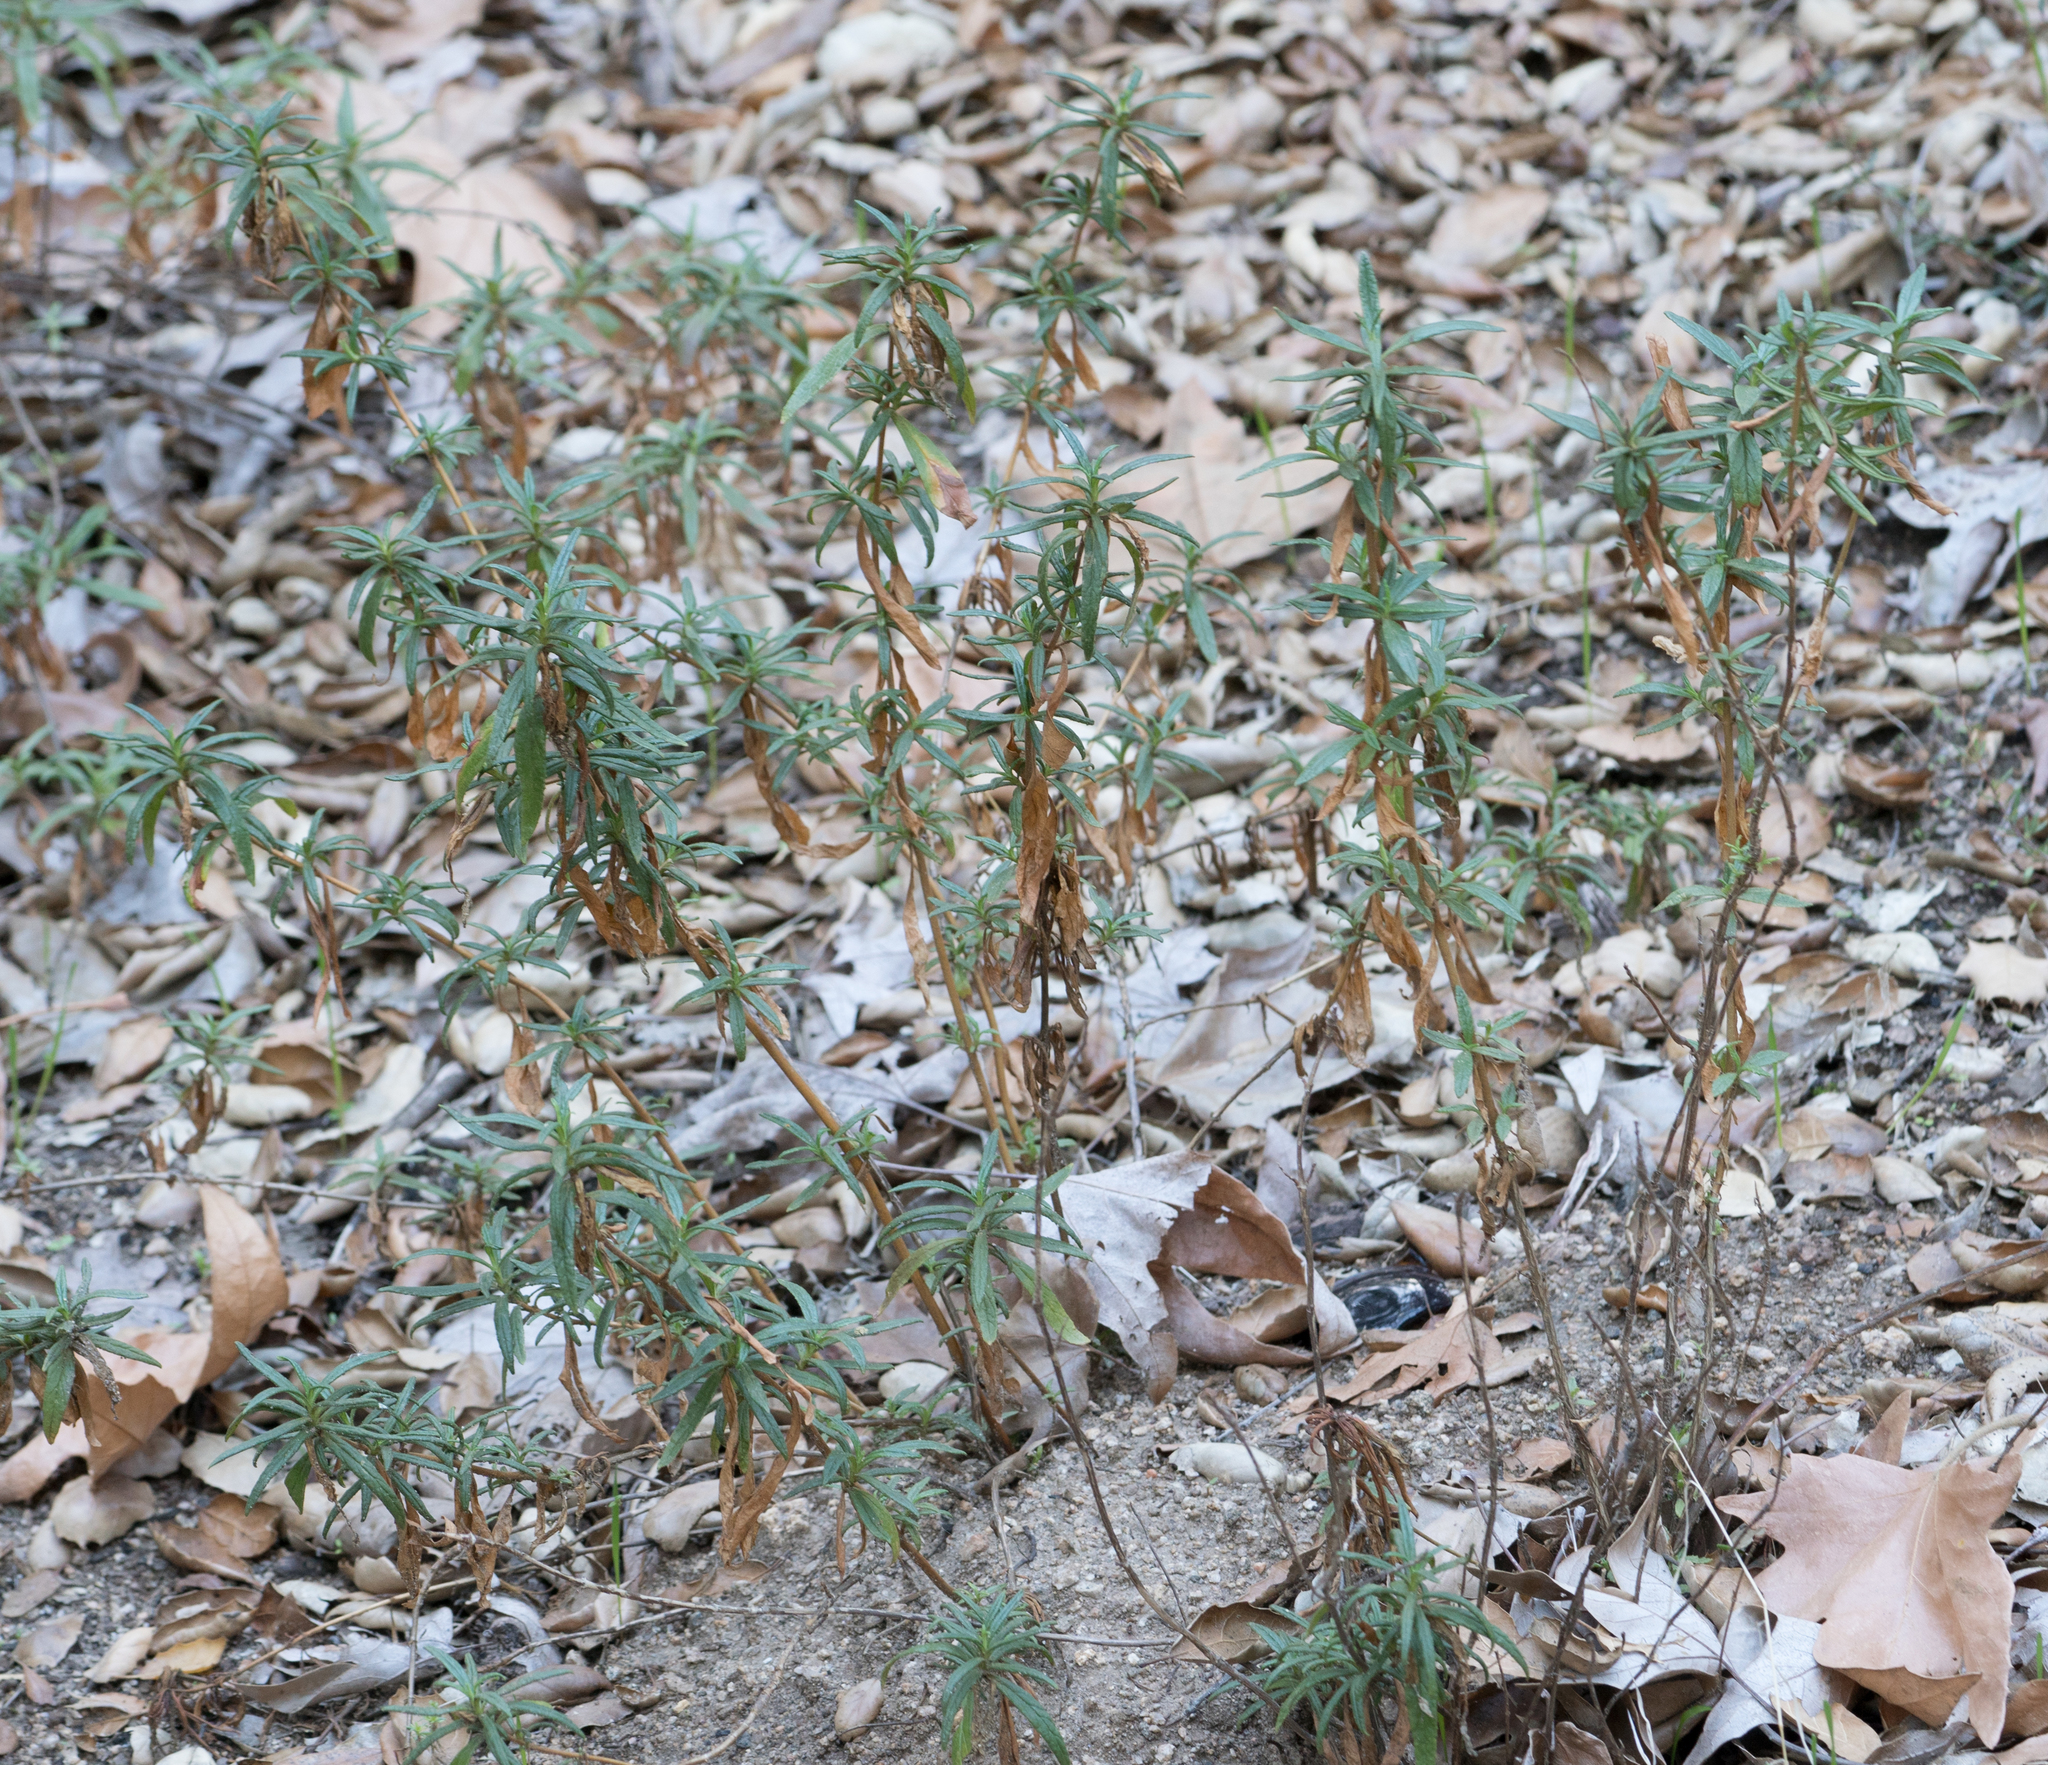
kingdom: Plantae
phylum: Tracheophyta
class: Magnoliopsida
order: Lamiales
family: Phrymaceae
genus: Diplacus
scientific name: Diplacus
